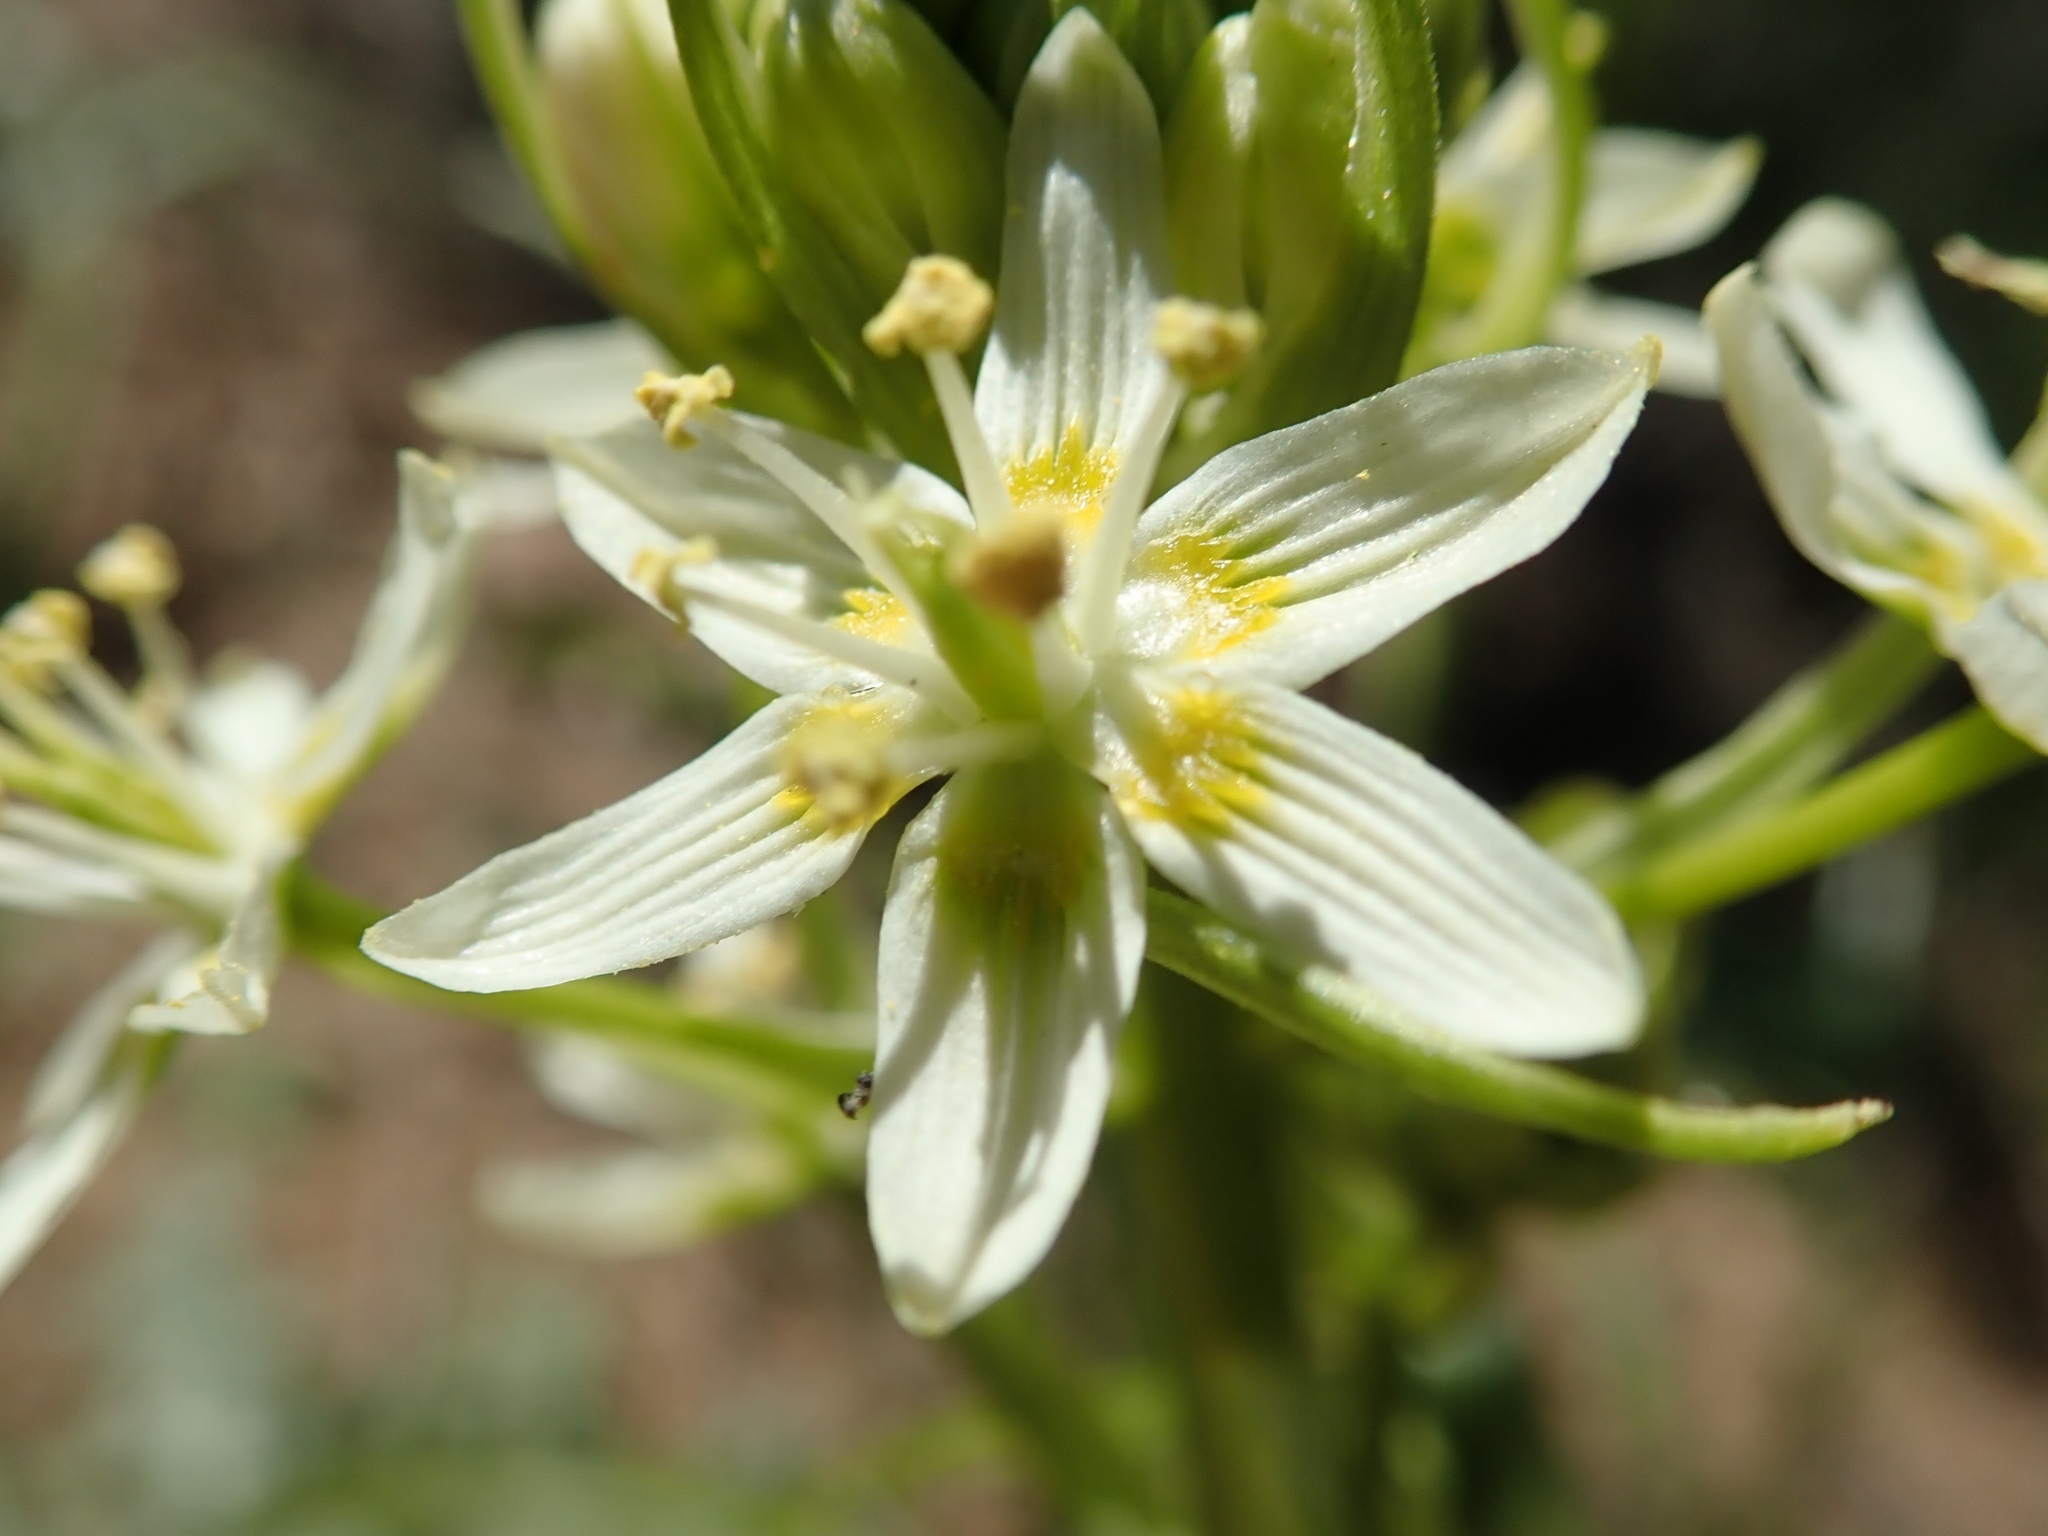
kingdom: Plantae
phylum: Tracheophyta
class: Liliopsida
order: Liliales
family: Melanthiaceae
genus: Toxicoscordion
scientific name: Toxicoscordion fremontii
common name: Fremont's death camas
